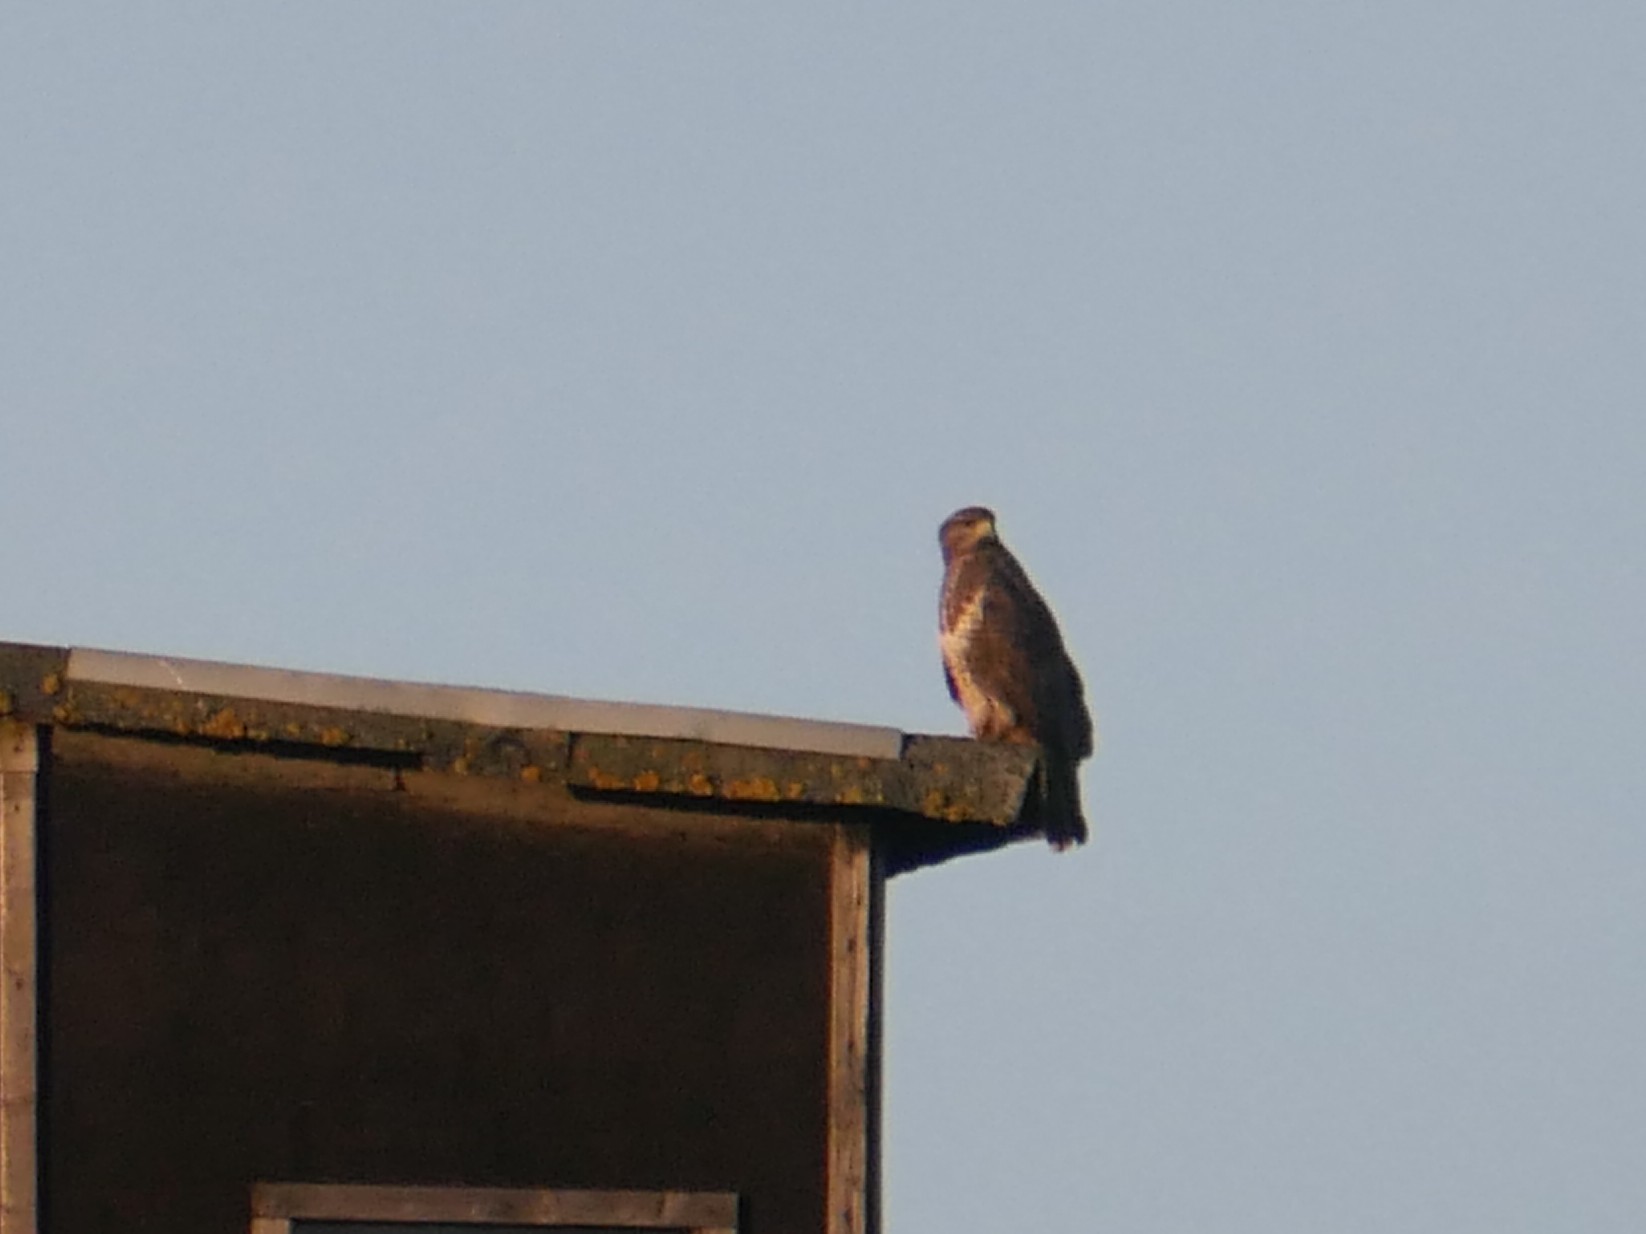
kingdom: Animalia
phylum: Chordata
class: Aves
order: Accipitriformes
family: Accipitridae
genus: Buteo
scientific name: Buteo buteo
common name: Common buzzard
